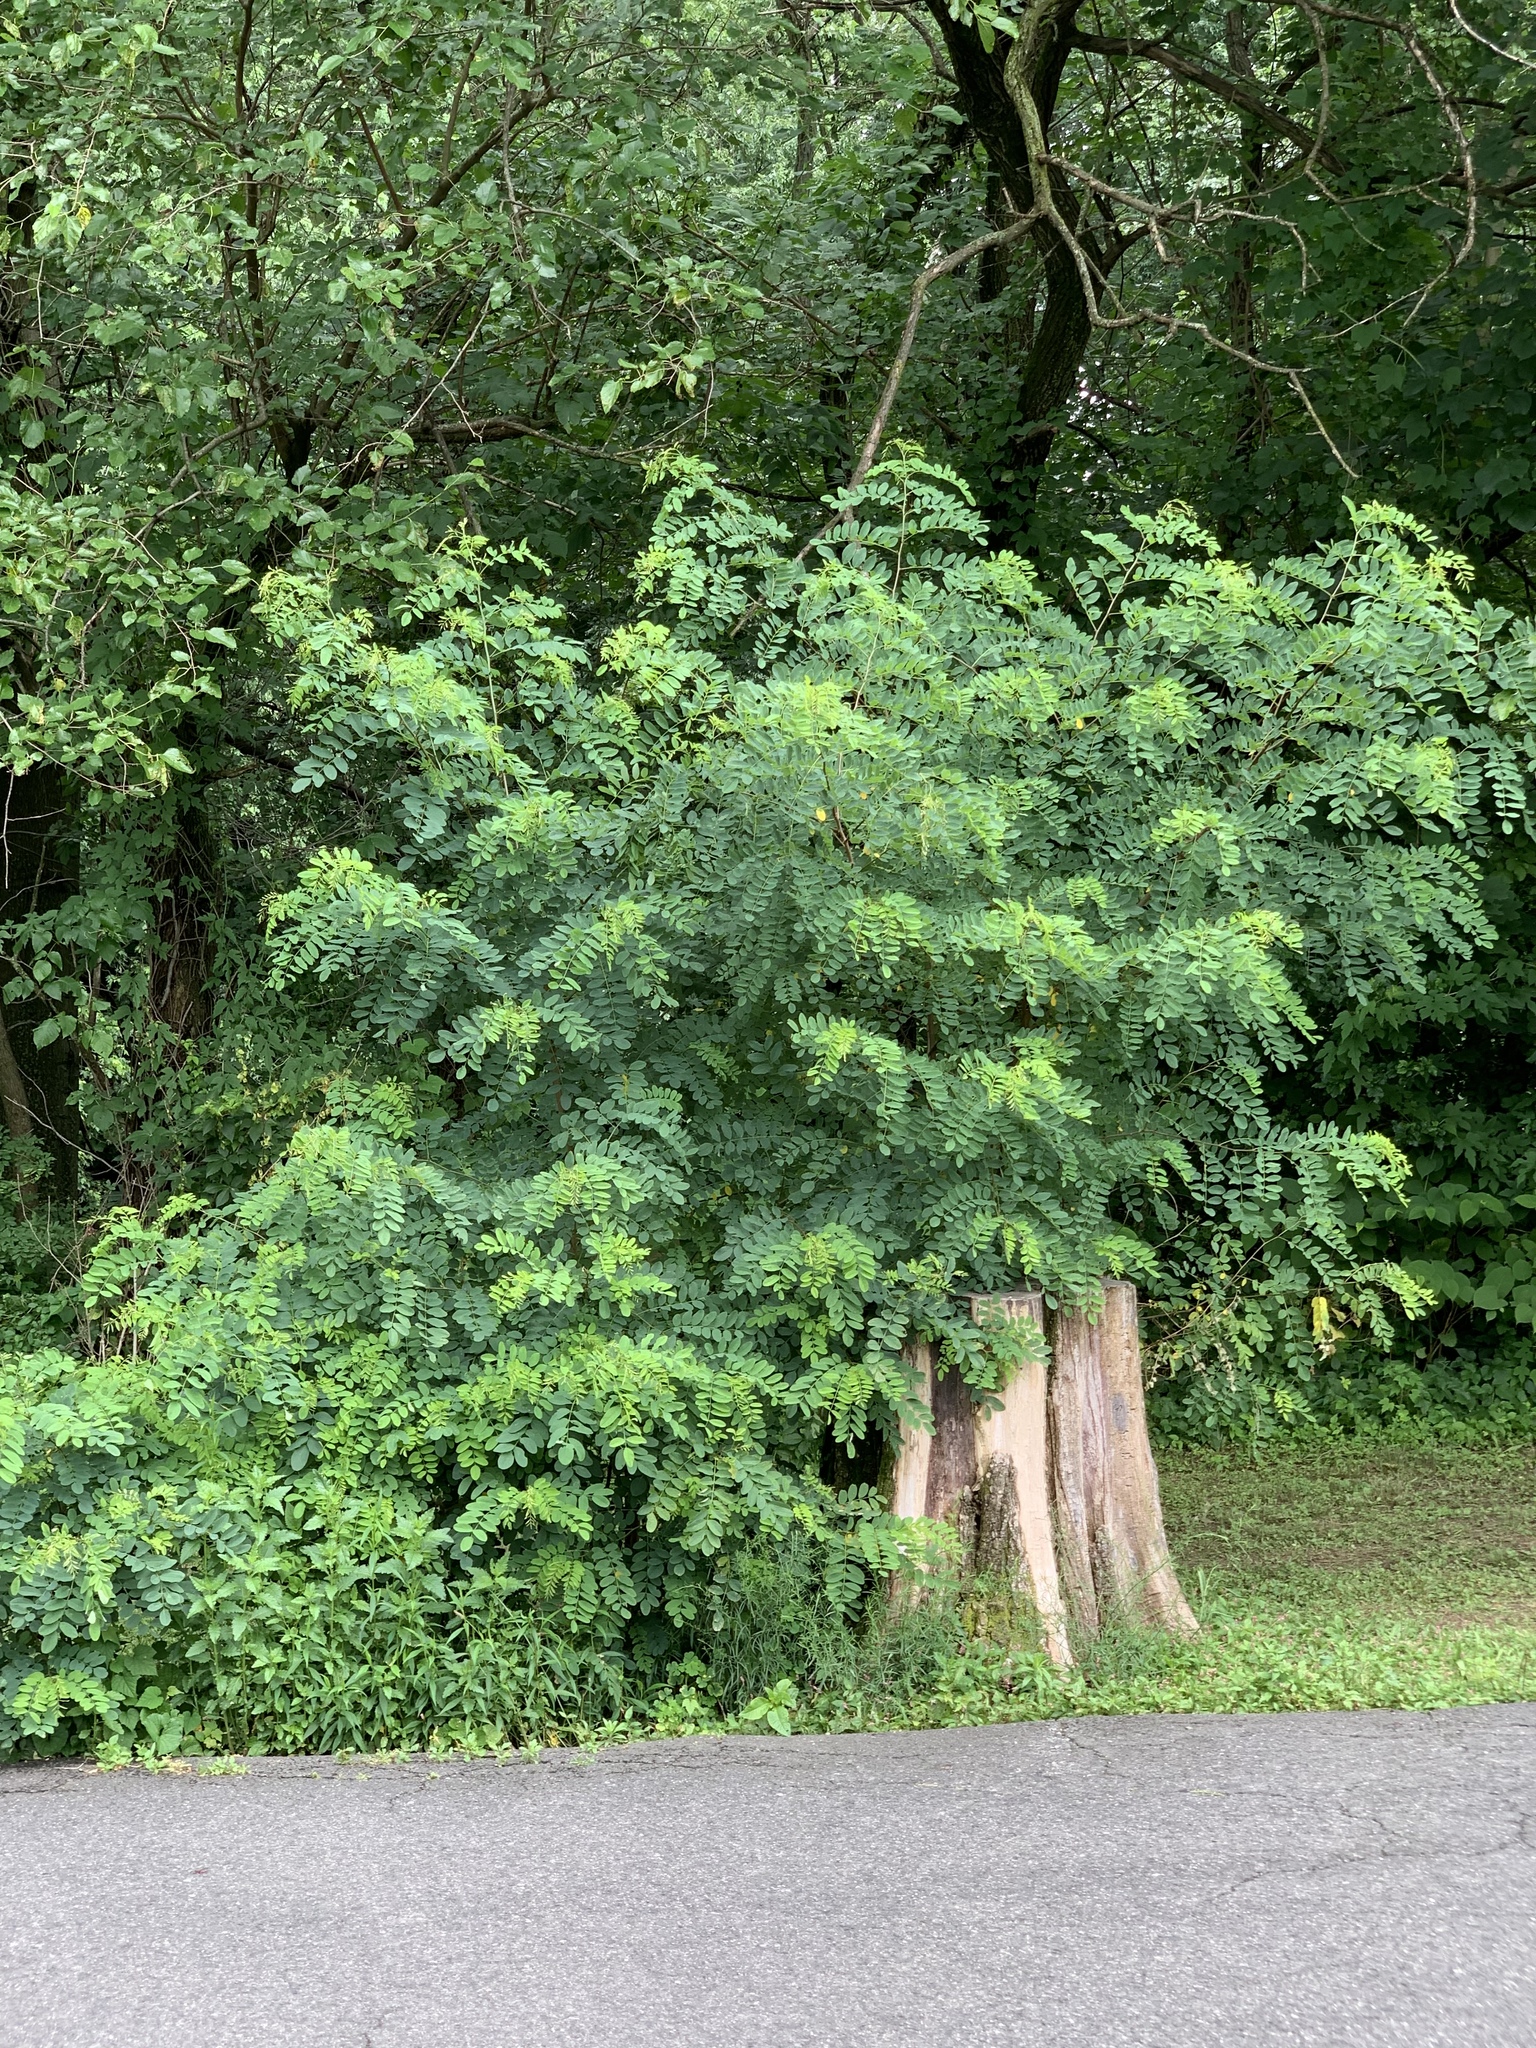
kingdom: Plantae
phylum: Tracheophyta
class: Magnoliopsida
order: Fabales
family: Fabaceae
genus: Robinia
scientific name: Robinia pseudoacacia
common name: Black locust
